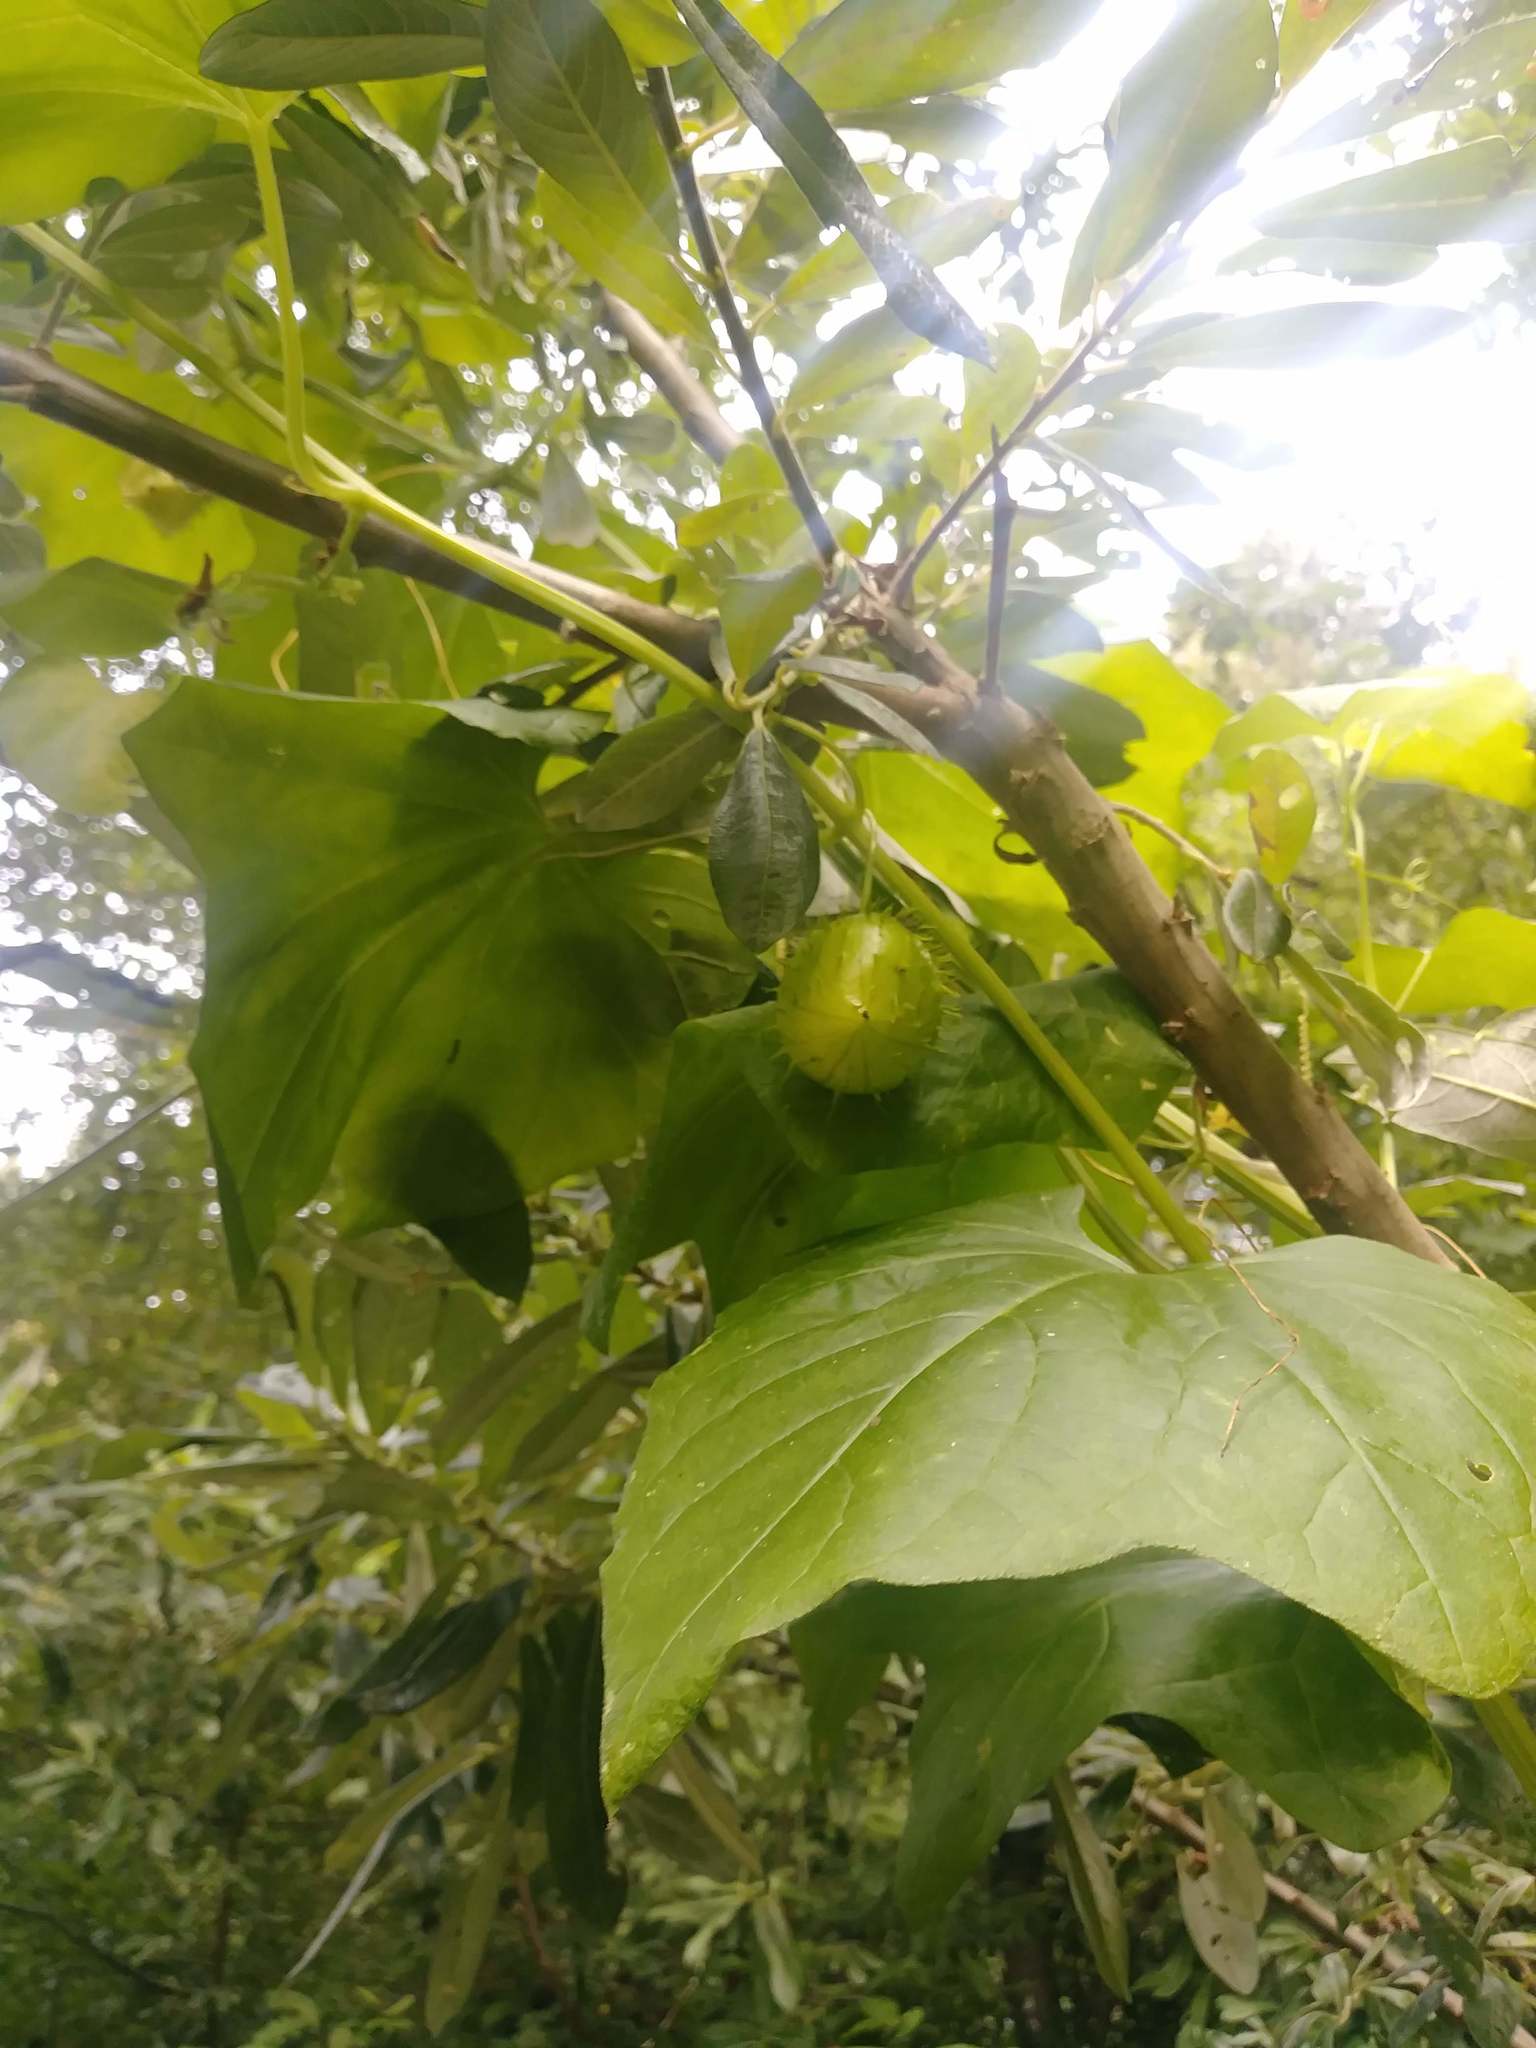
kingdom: Plantae
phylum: Tracheophyta
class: Magnoliopsida
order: Cucurbitales
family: Cucurbitaceae
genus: Marah
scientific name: Marah oregana
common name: Coastal manroot
